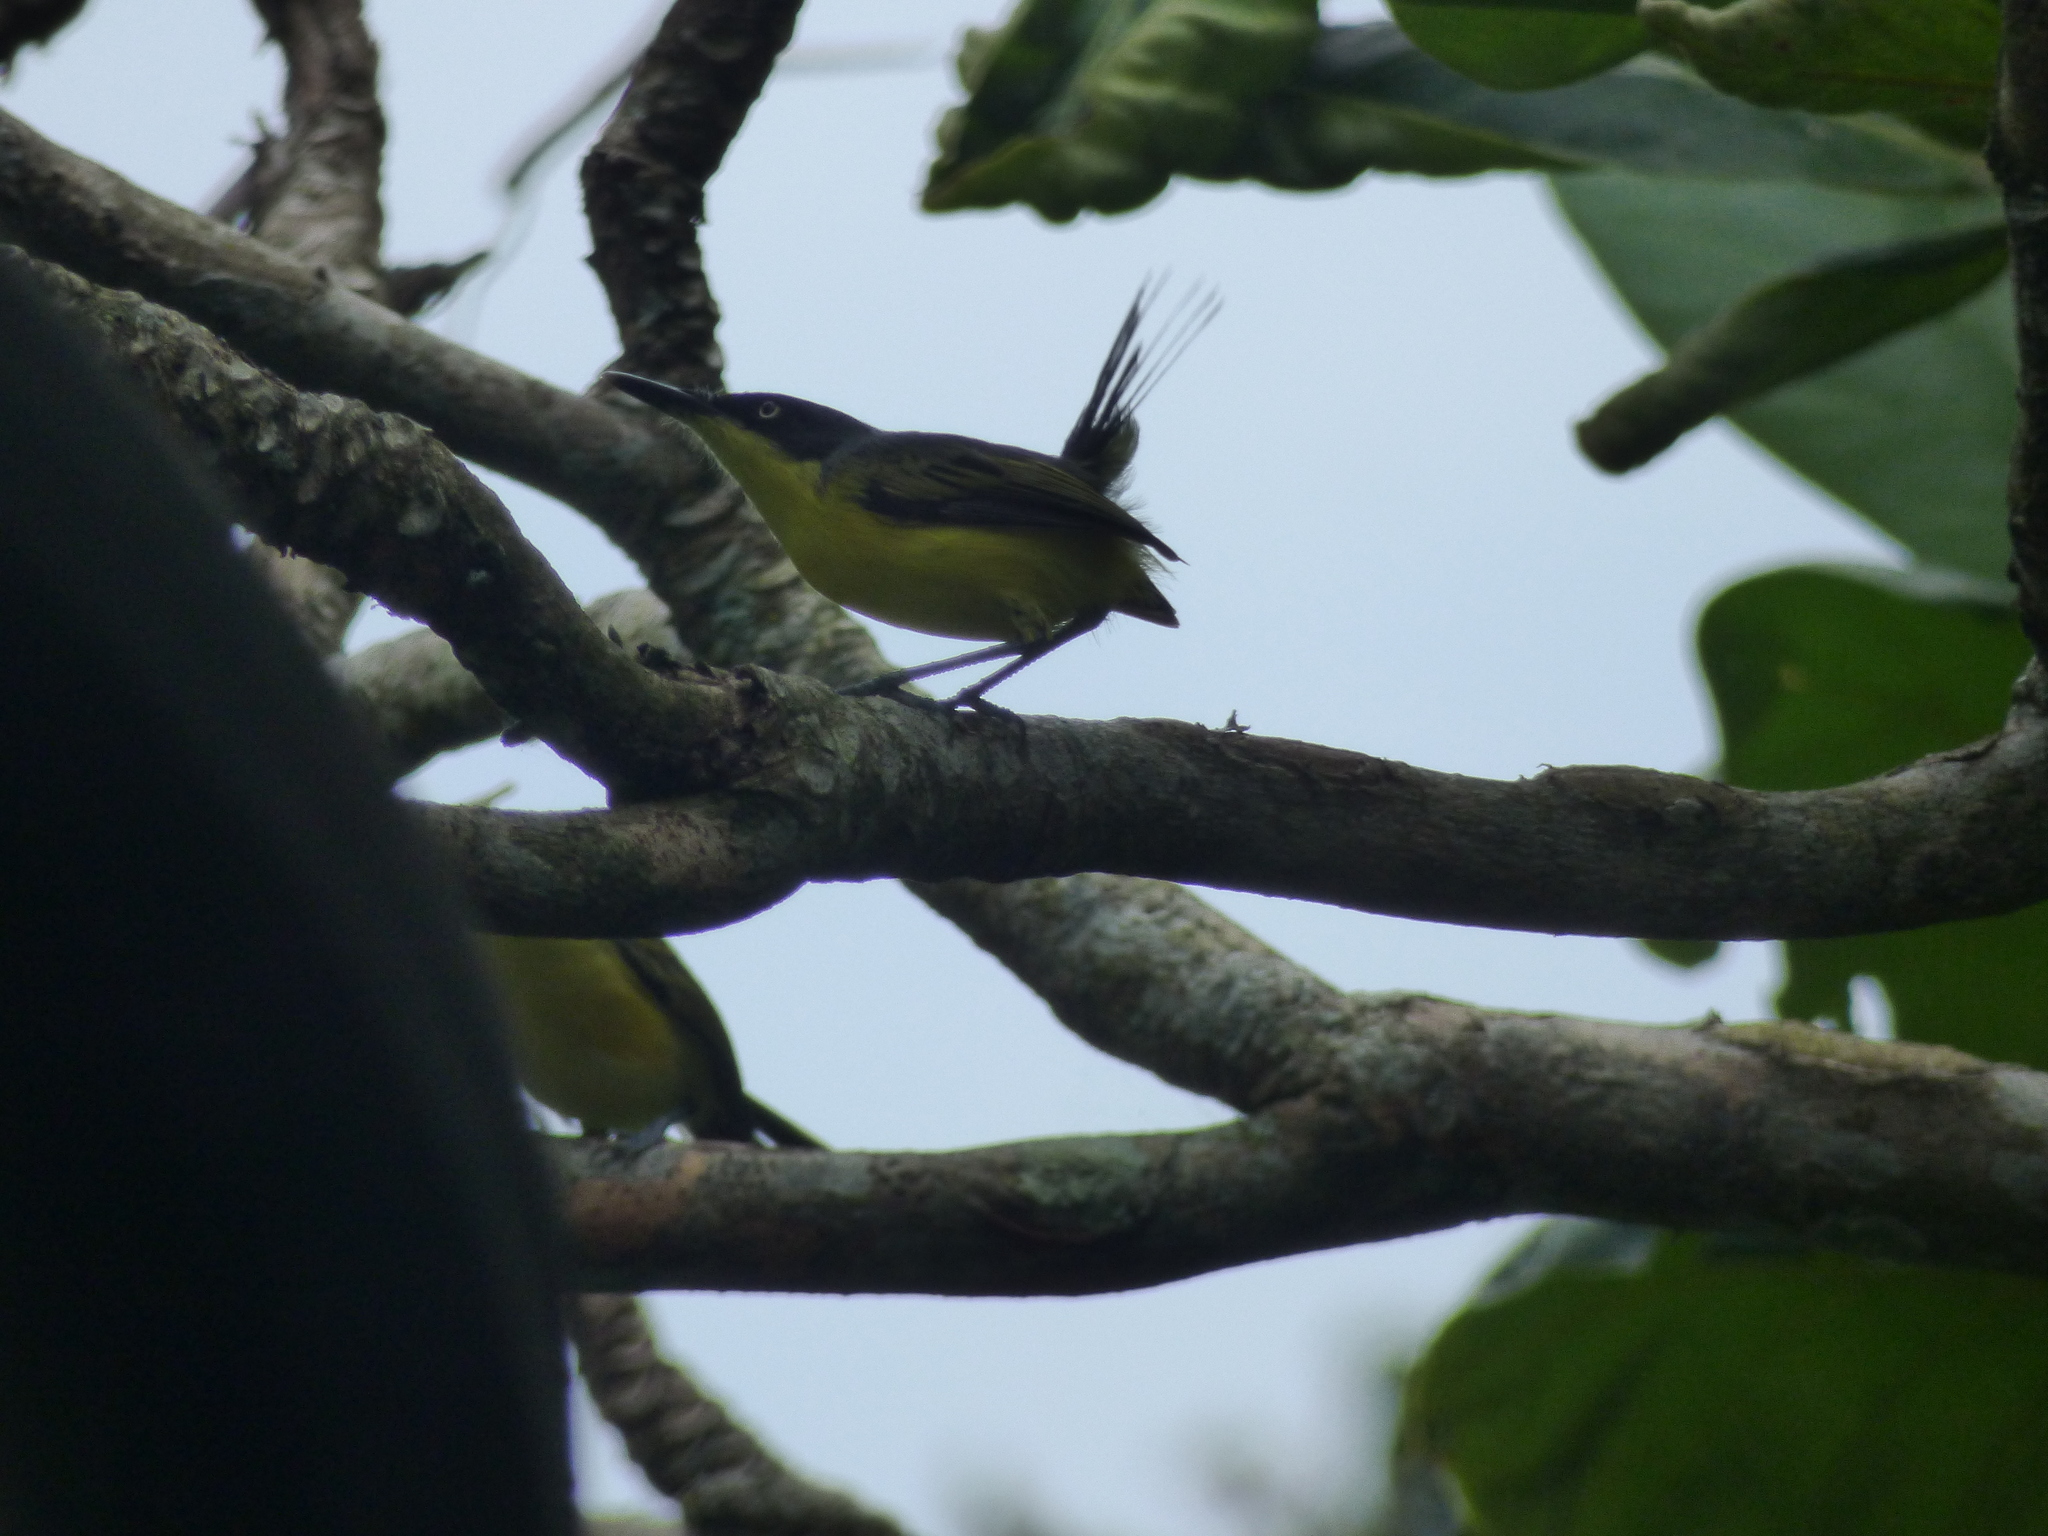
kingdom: Animalia
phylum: Chordata
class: Aves
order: Passeriformes
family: Tyrannidae
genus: Todirostrum
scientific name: Todirostrum cinereum
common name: Common tody-flycatcher
